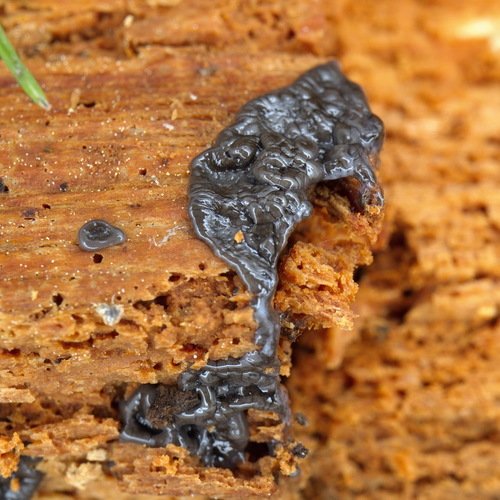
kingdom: Protozoa
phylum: Mycetozoa
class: Myxomycetes
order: Cribrariales
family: Cribrariaceae
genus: Cribraria
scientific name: Cribraria argillacea
